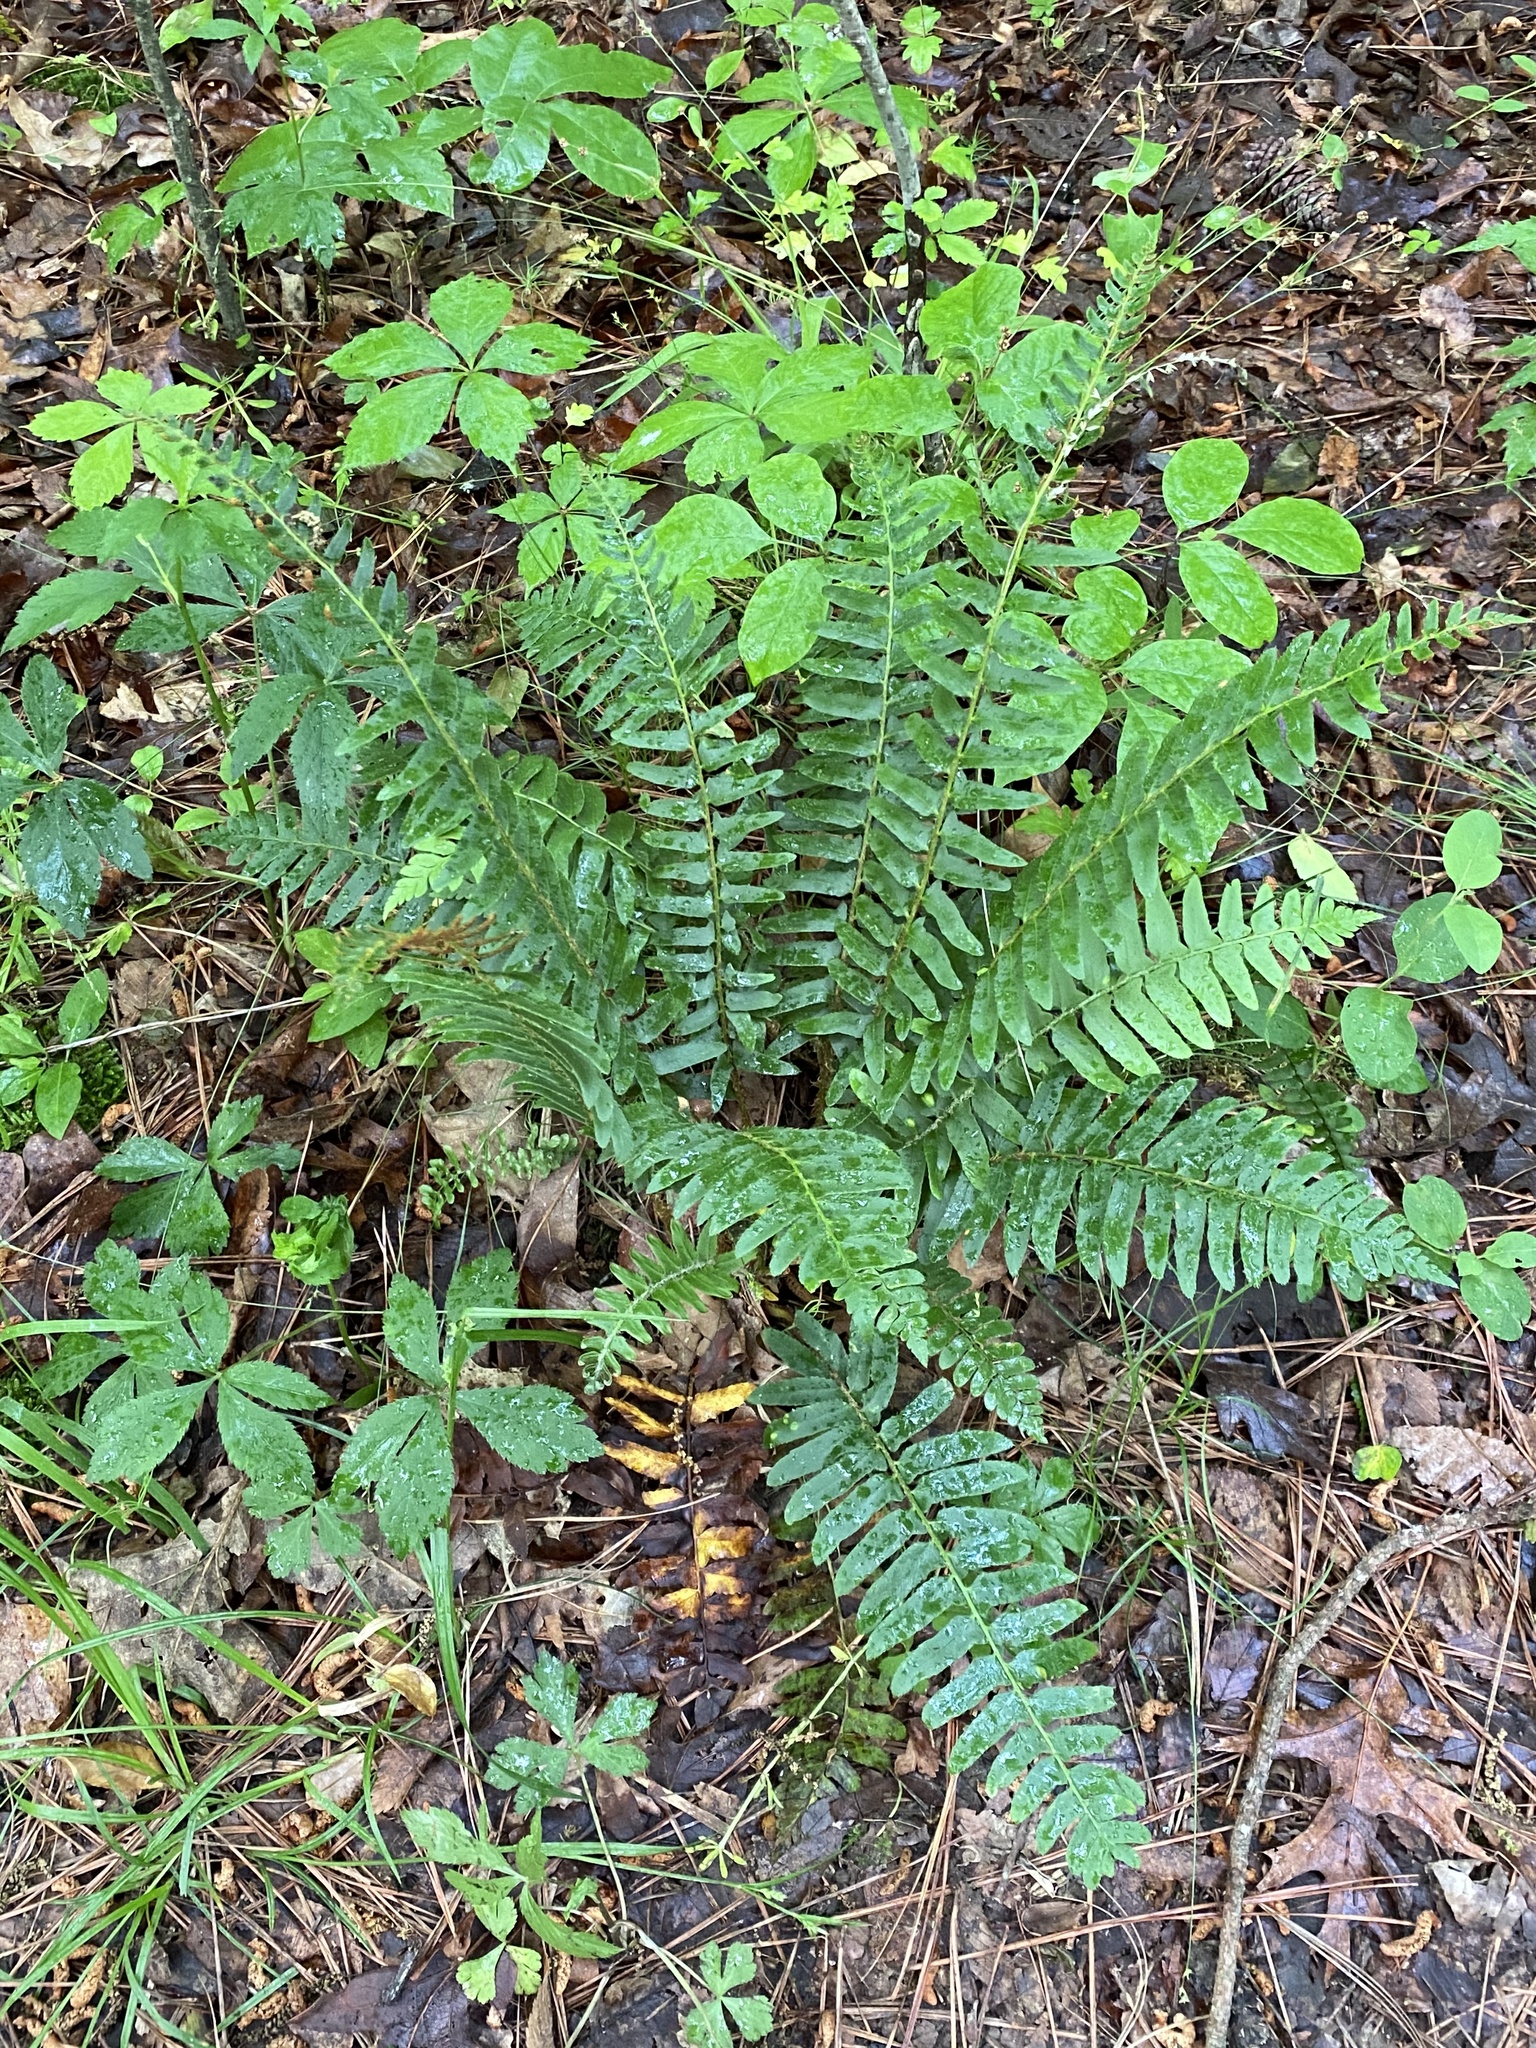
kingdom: Plantae
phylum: Tracheophyta
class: Polypodiopsida
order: Polypodiales
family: Dryopteridaceae
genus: Polystichum
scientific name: Polystichum acrostichoides
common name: Christmas fern
